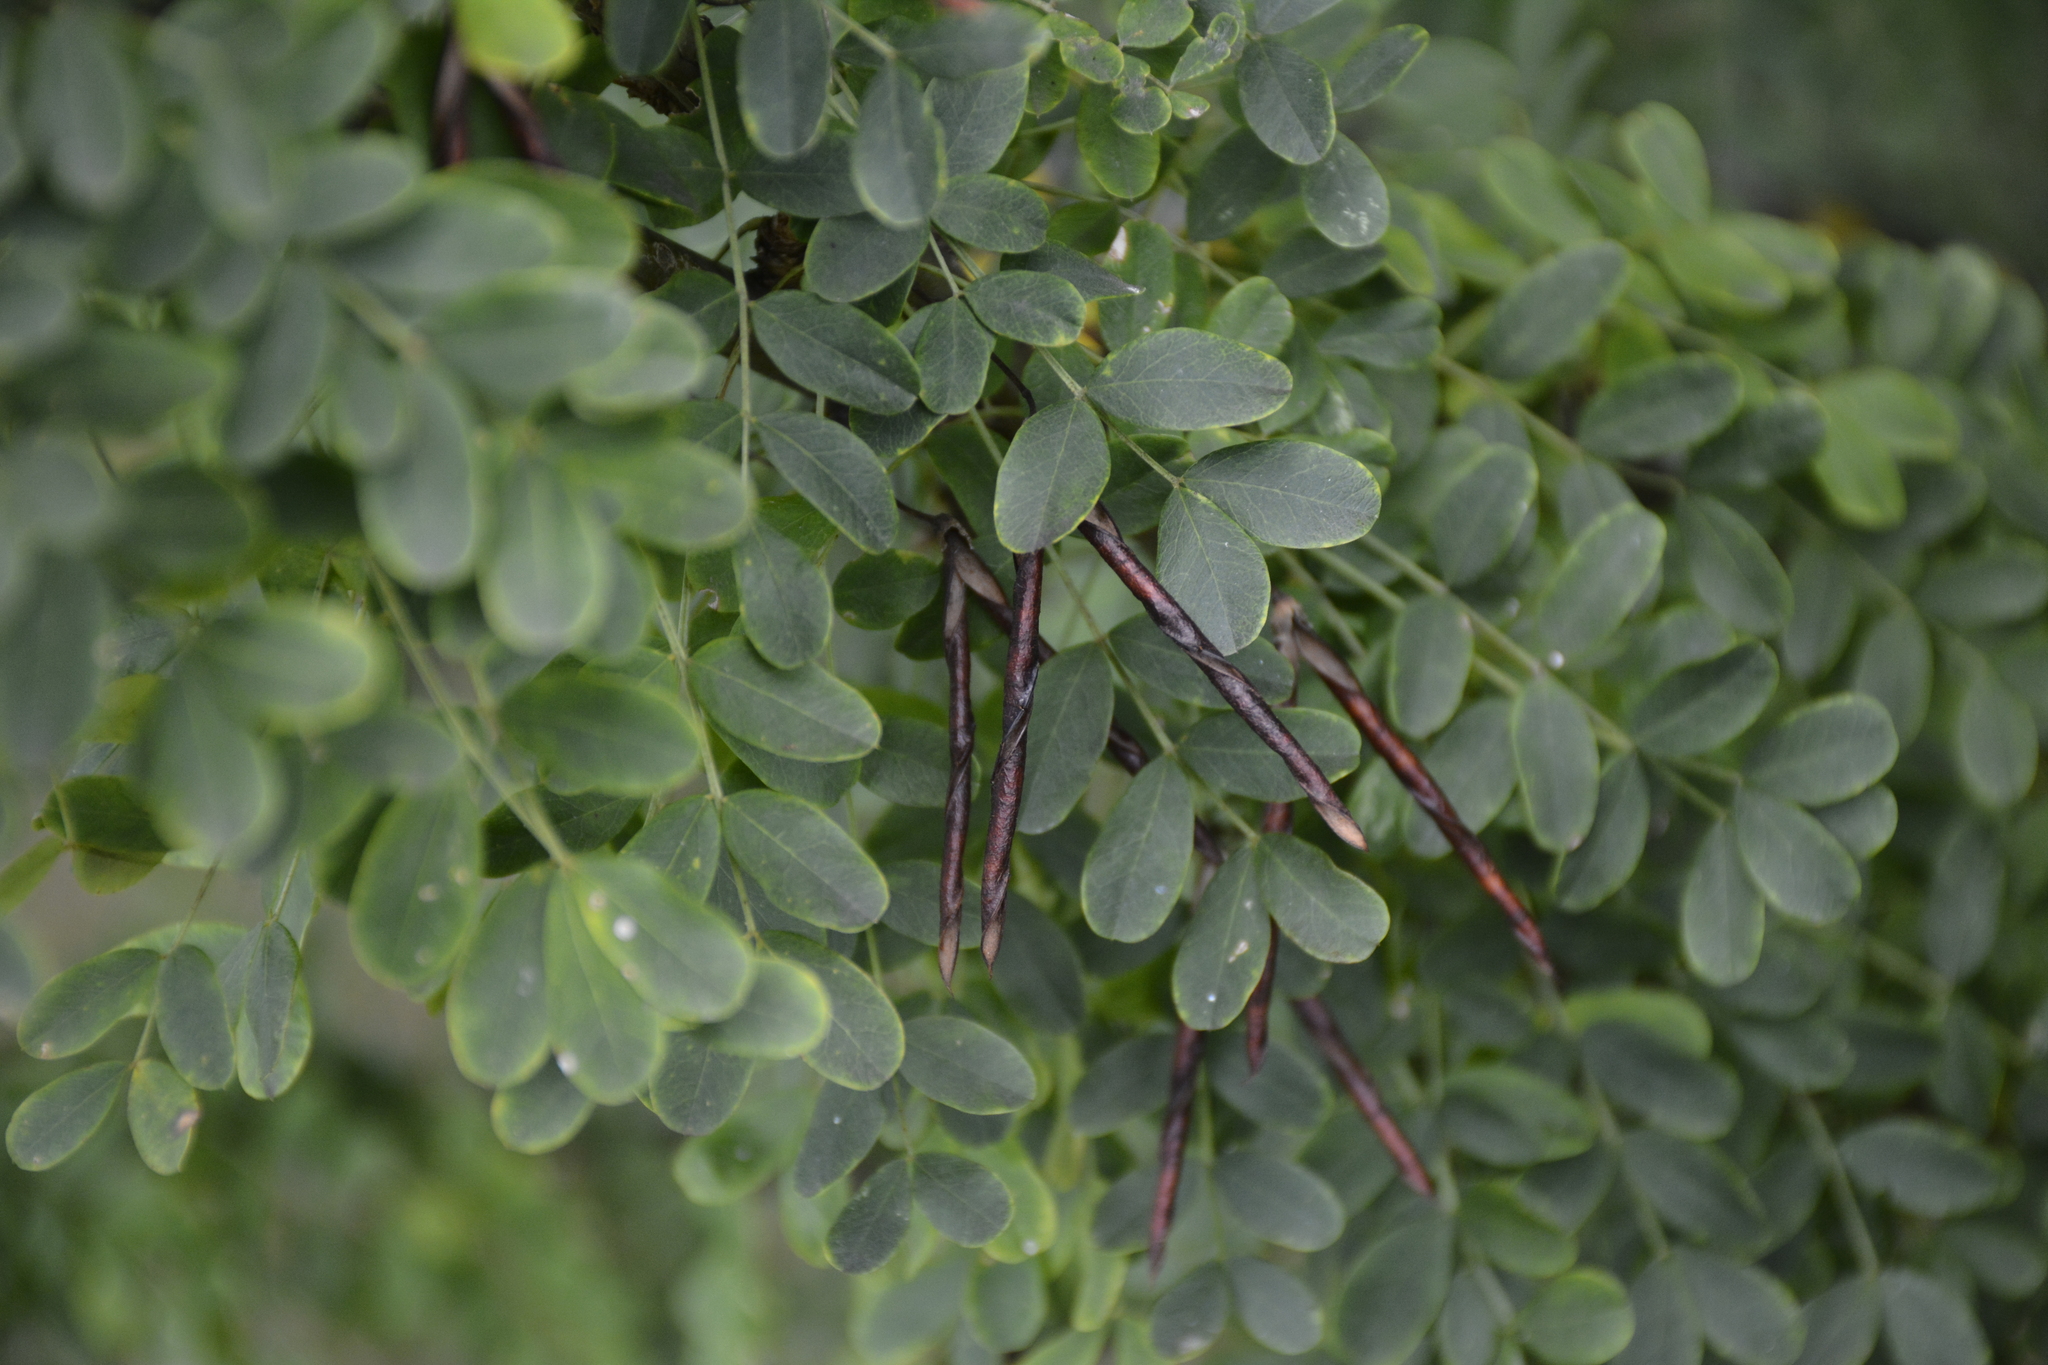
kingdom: Plantae
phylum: Tracheophyta
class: Magnoliopsida
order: Fabales
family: Fabaceae
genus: Caragana
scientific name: Caragana arborescens
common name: Siberian peashrub
